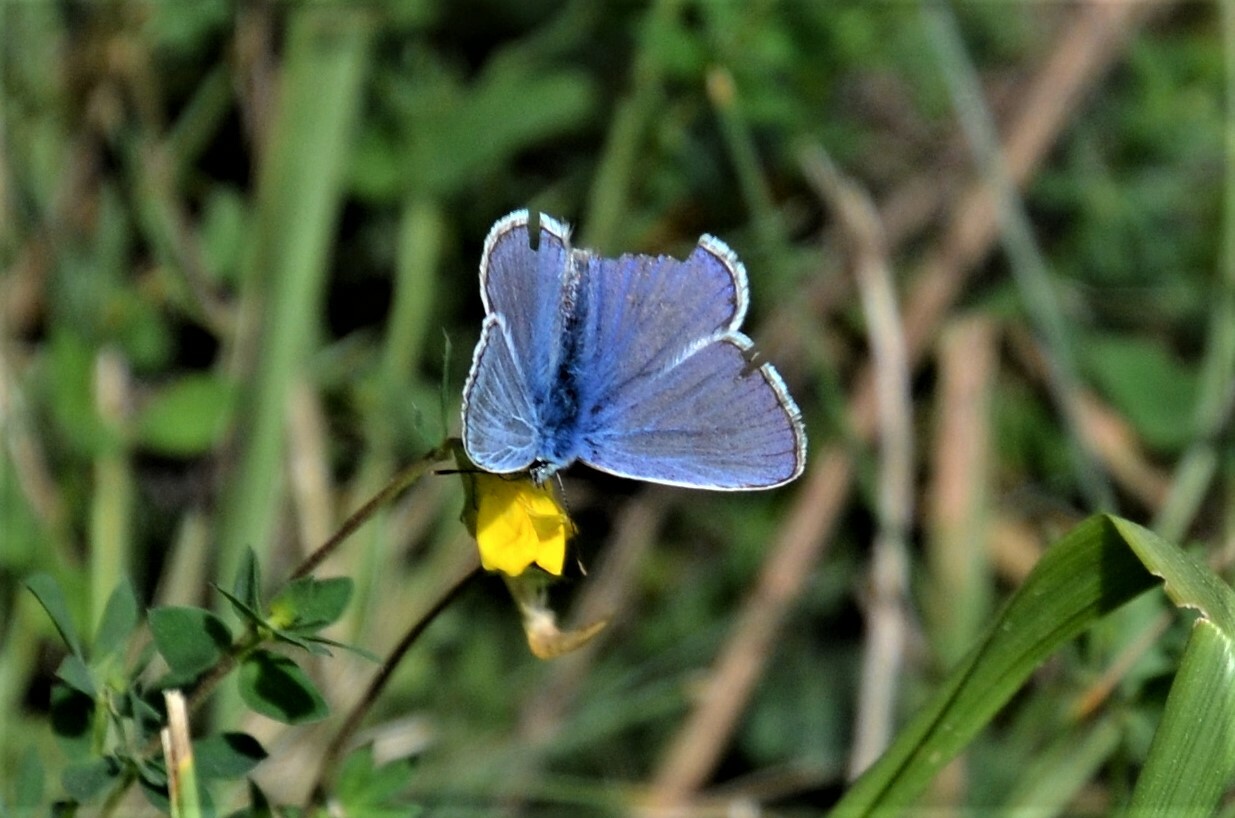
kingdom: Animalia
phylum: Arthropoda
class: Insecta
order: Lepidoptera
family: Lycaenidae
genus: Polyommatus
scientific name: Polyommatus icarus
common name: Common blue
